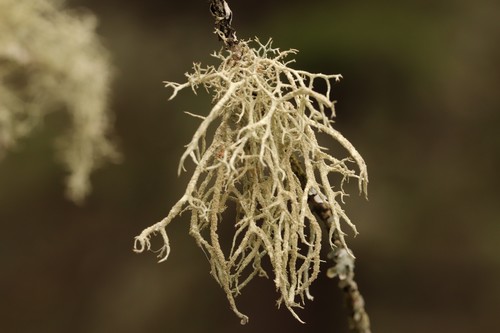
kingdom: Fungi
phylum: Ascomycota
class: Lecanoromycetes
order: Lecanorales
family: Parmeliaceae
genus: Evernia
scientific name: Evernia mesomorpha
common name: Boreal oak moss lichen
